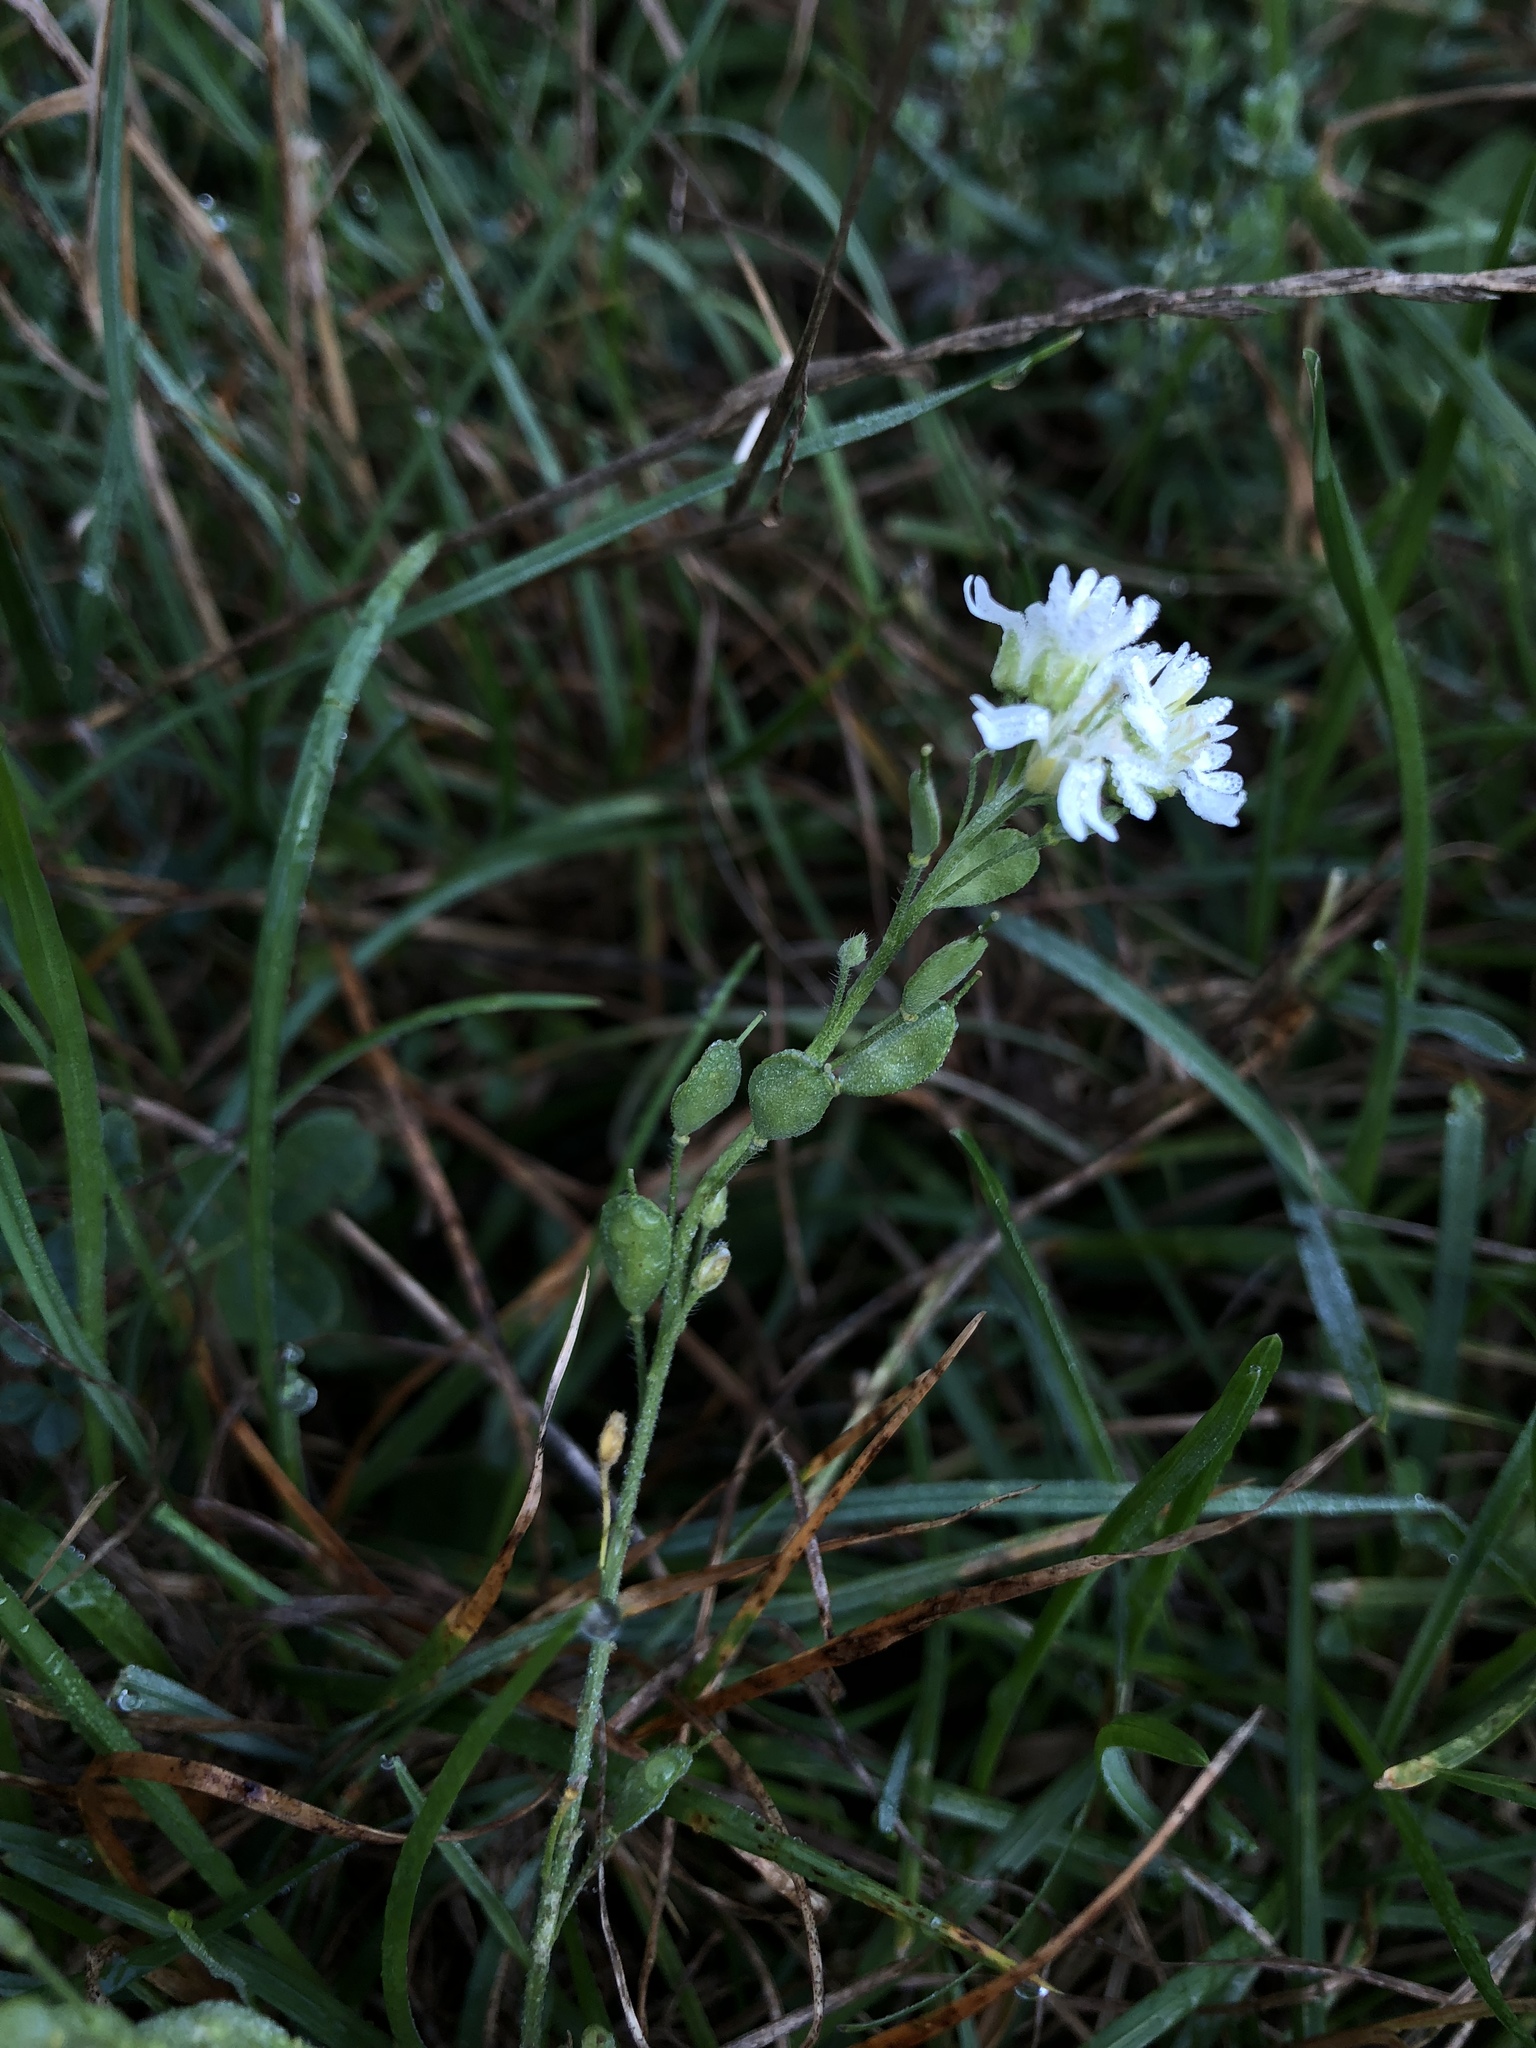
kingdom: Plantae
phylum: Tracheophyta
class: Magnoliopsida
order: Brassicales
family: Brassicaceae
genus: Berteroa
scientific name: Berteroa incana
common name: Hoary alison
